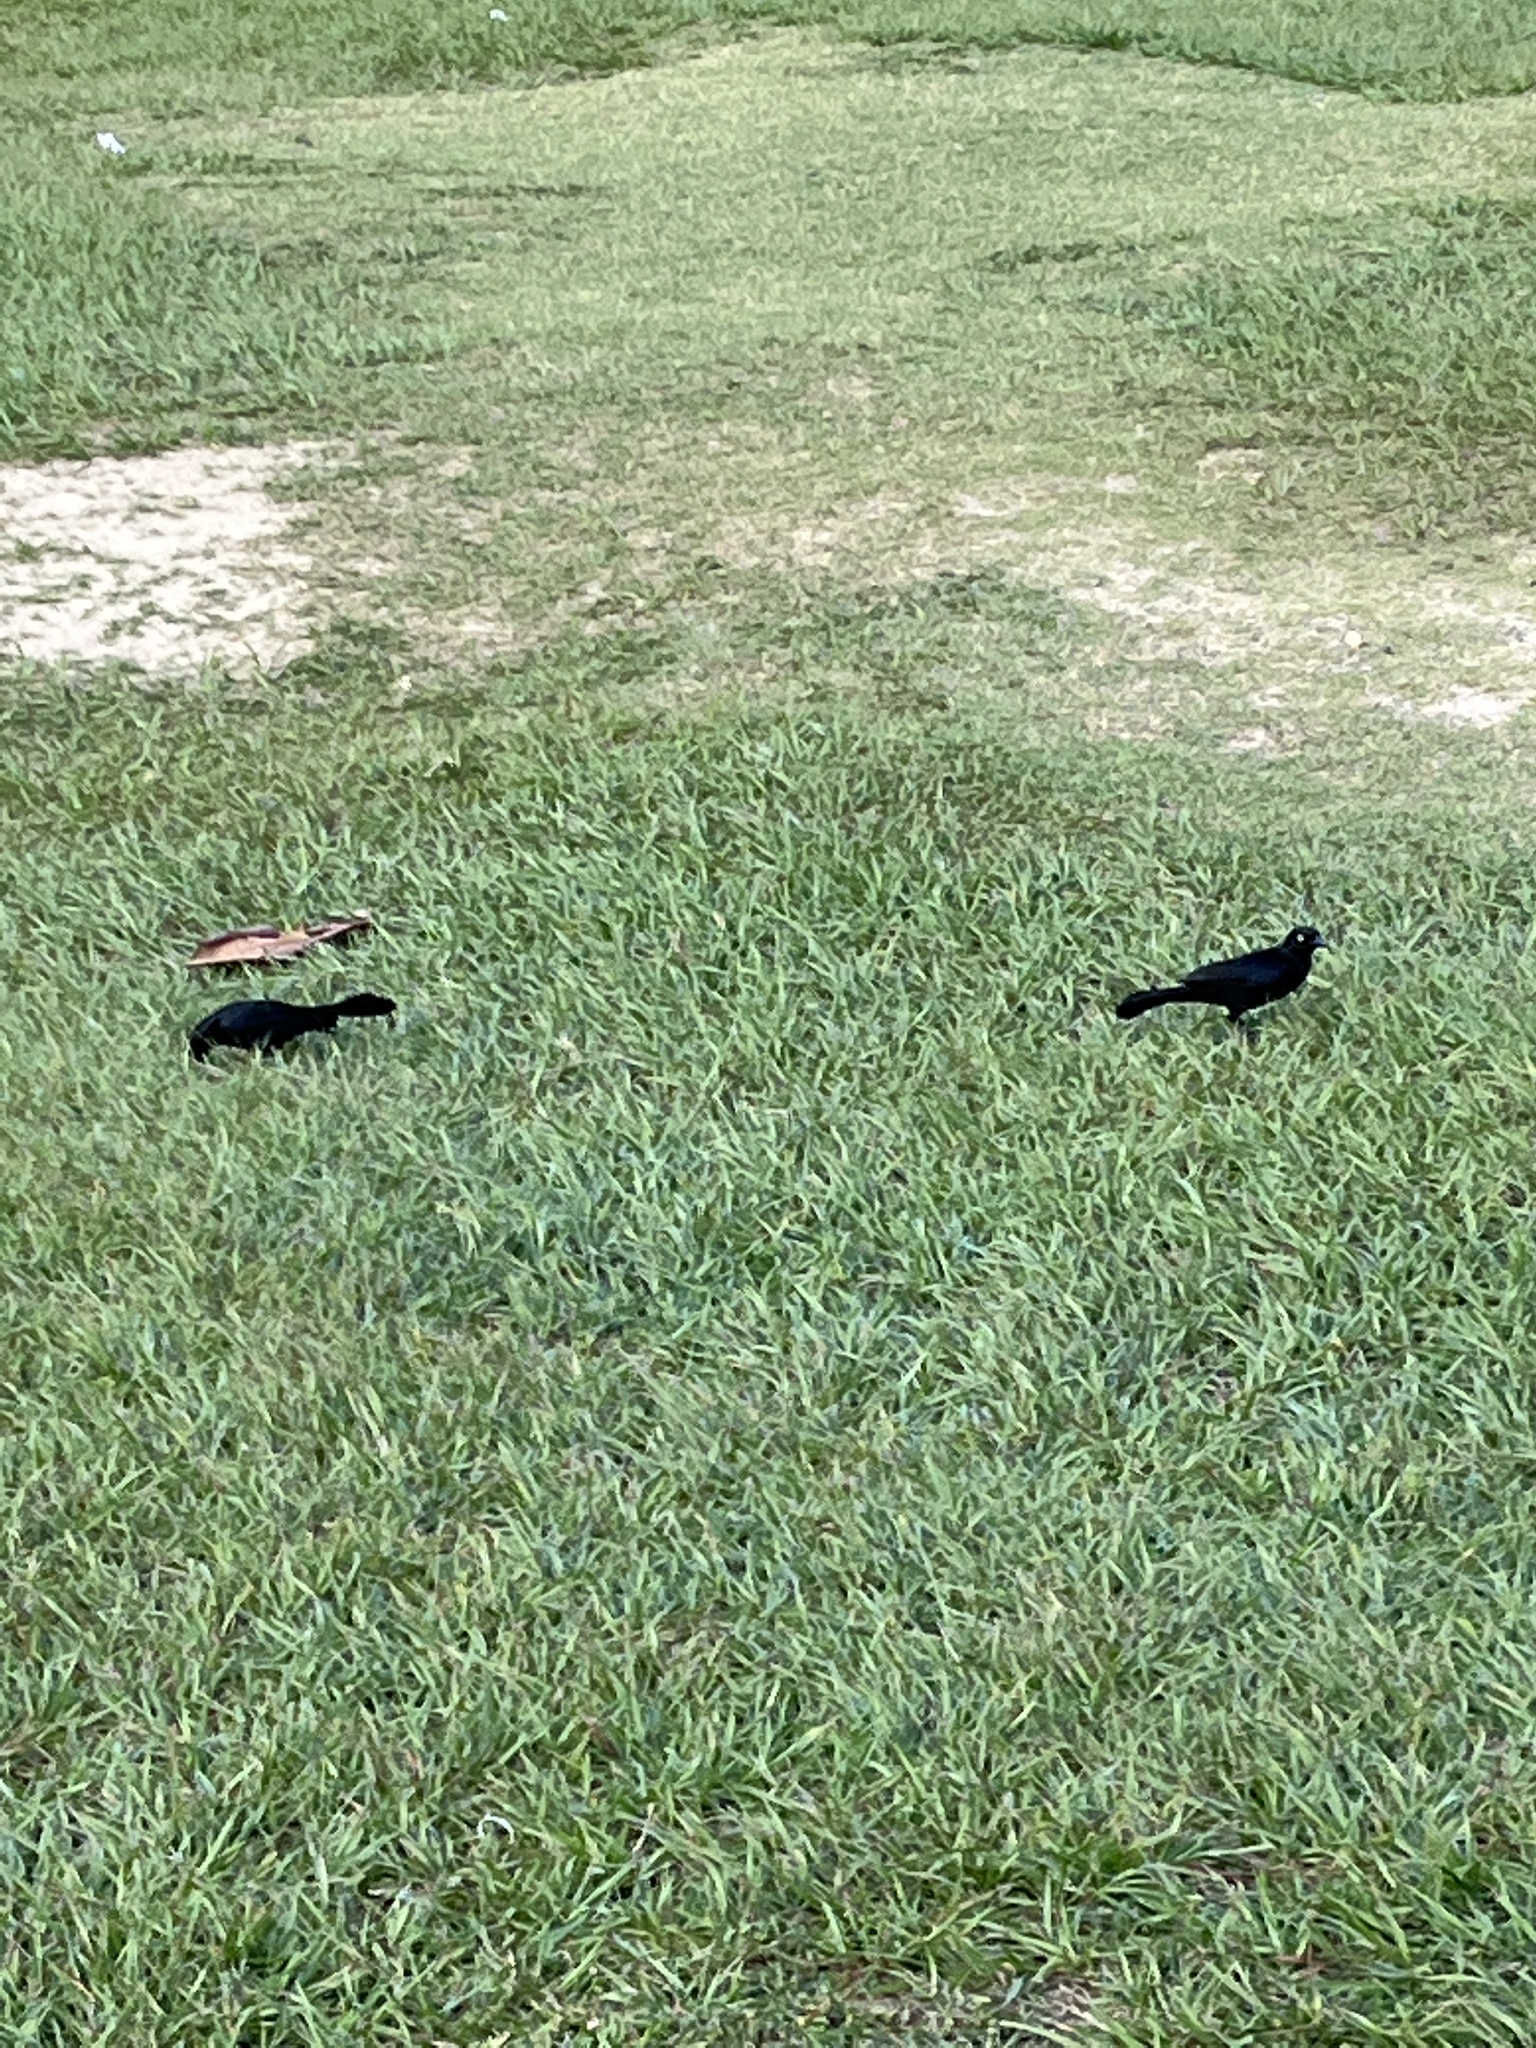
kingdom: Animalia
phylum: Chordata
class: Aves
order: Passeriformes
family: Icteridae
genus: Quiscalus
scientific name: Quiscalus niger
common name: Greater antillean grackle
